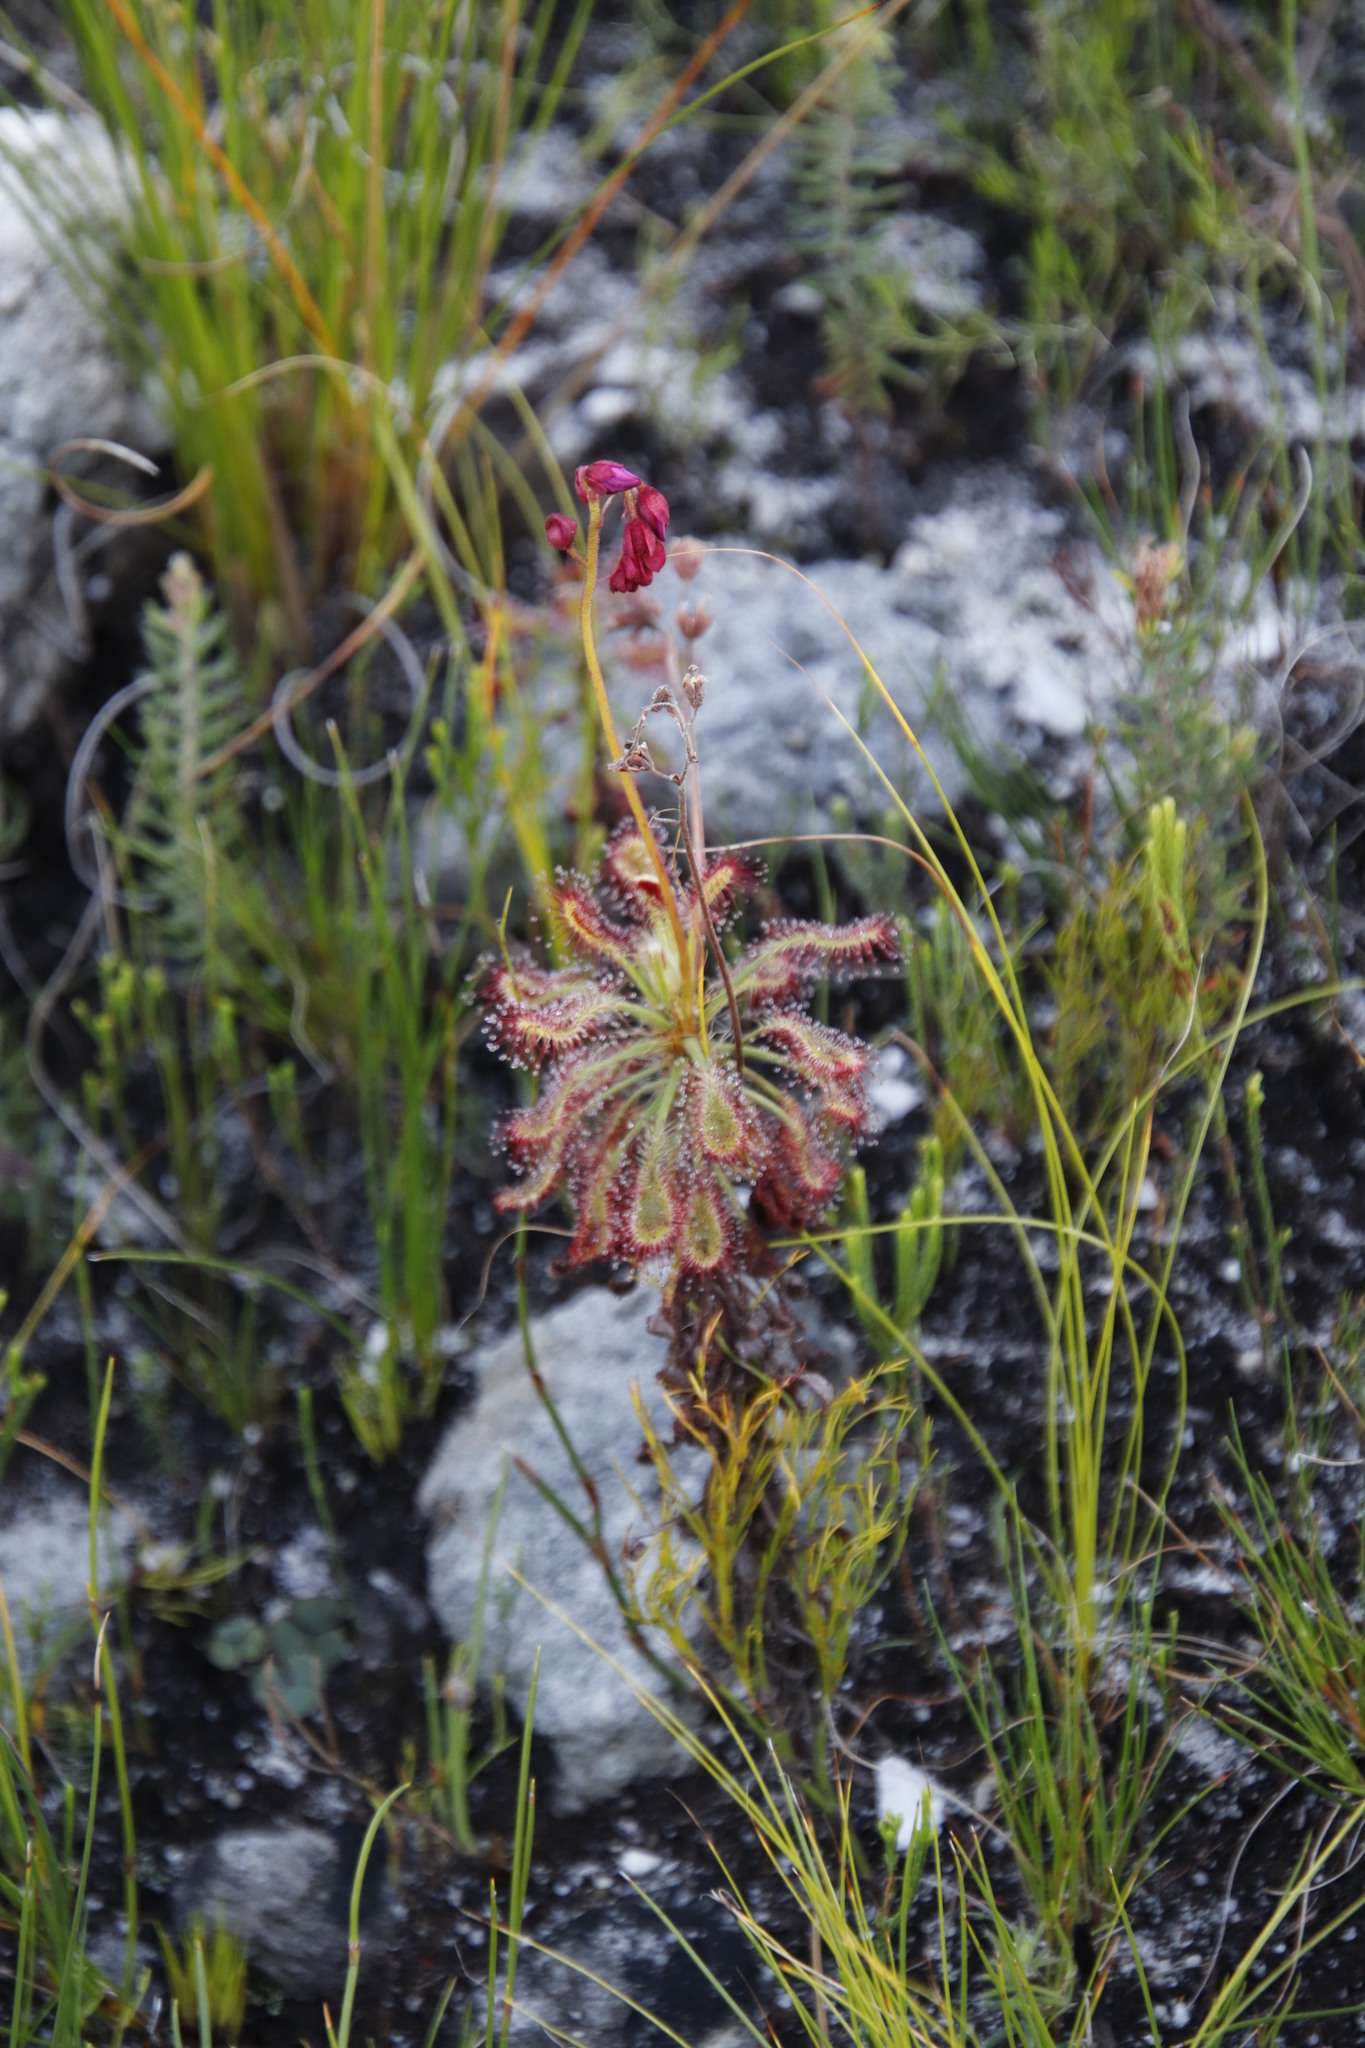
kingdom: Plantae
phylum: Tracheophyta
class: Magnoliopsida
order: Caryophyllales
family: Droseraceae
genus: Drosera
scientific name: Drosera glabripes
